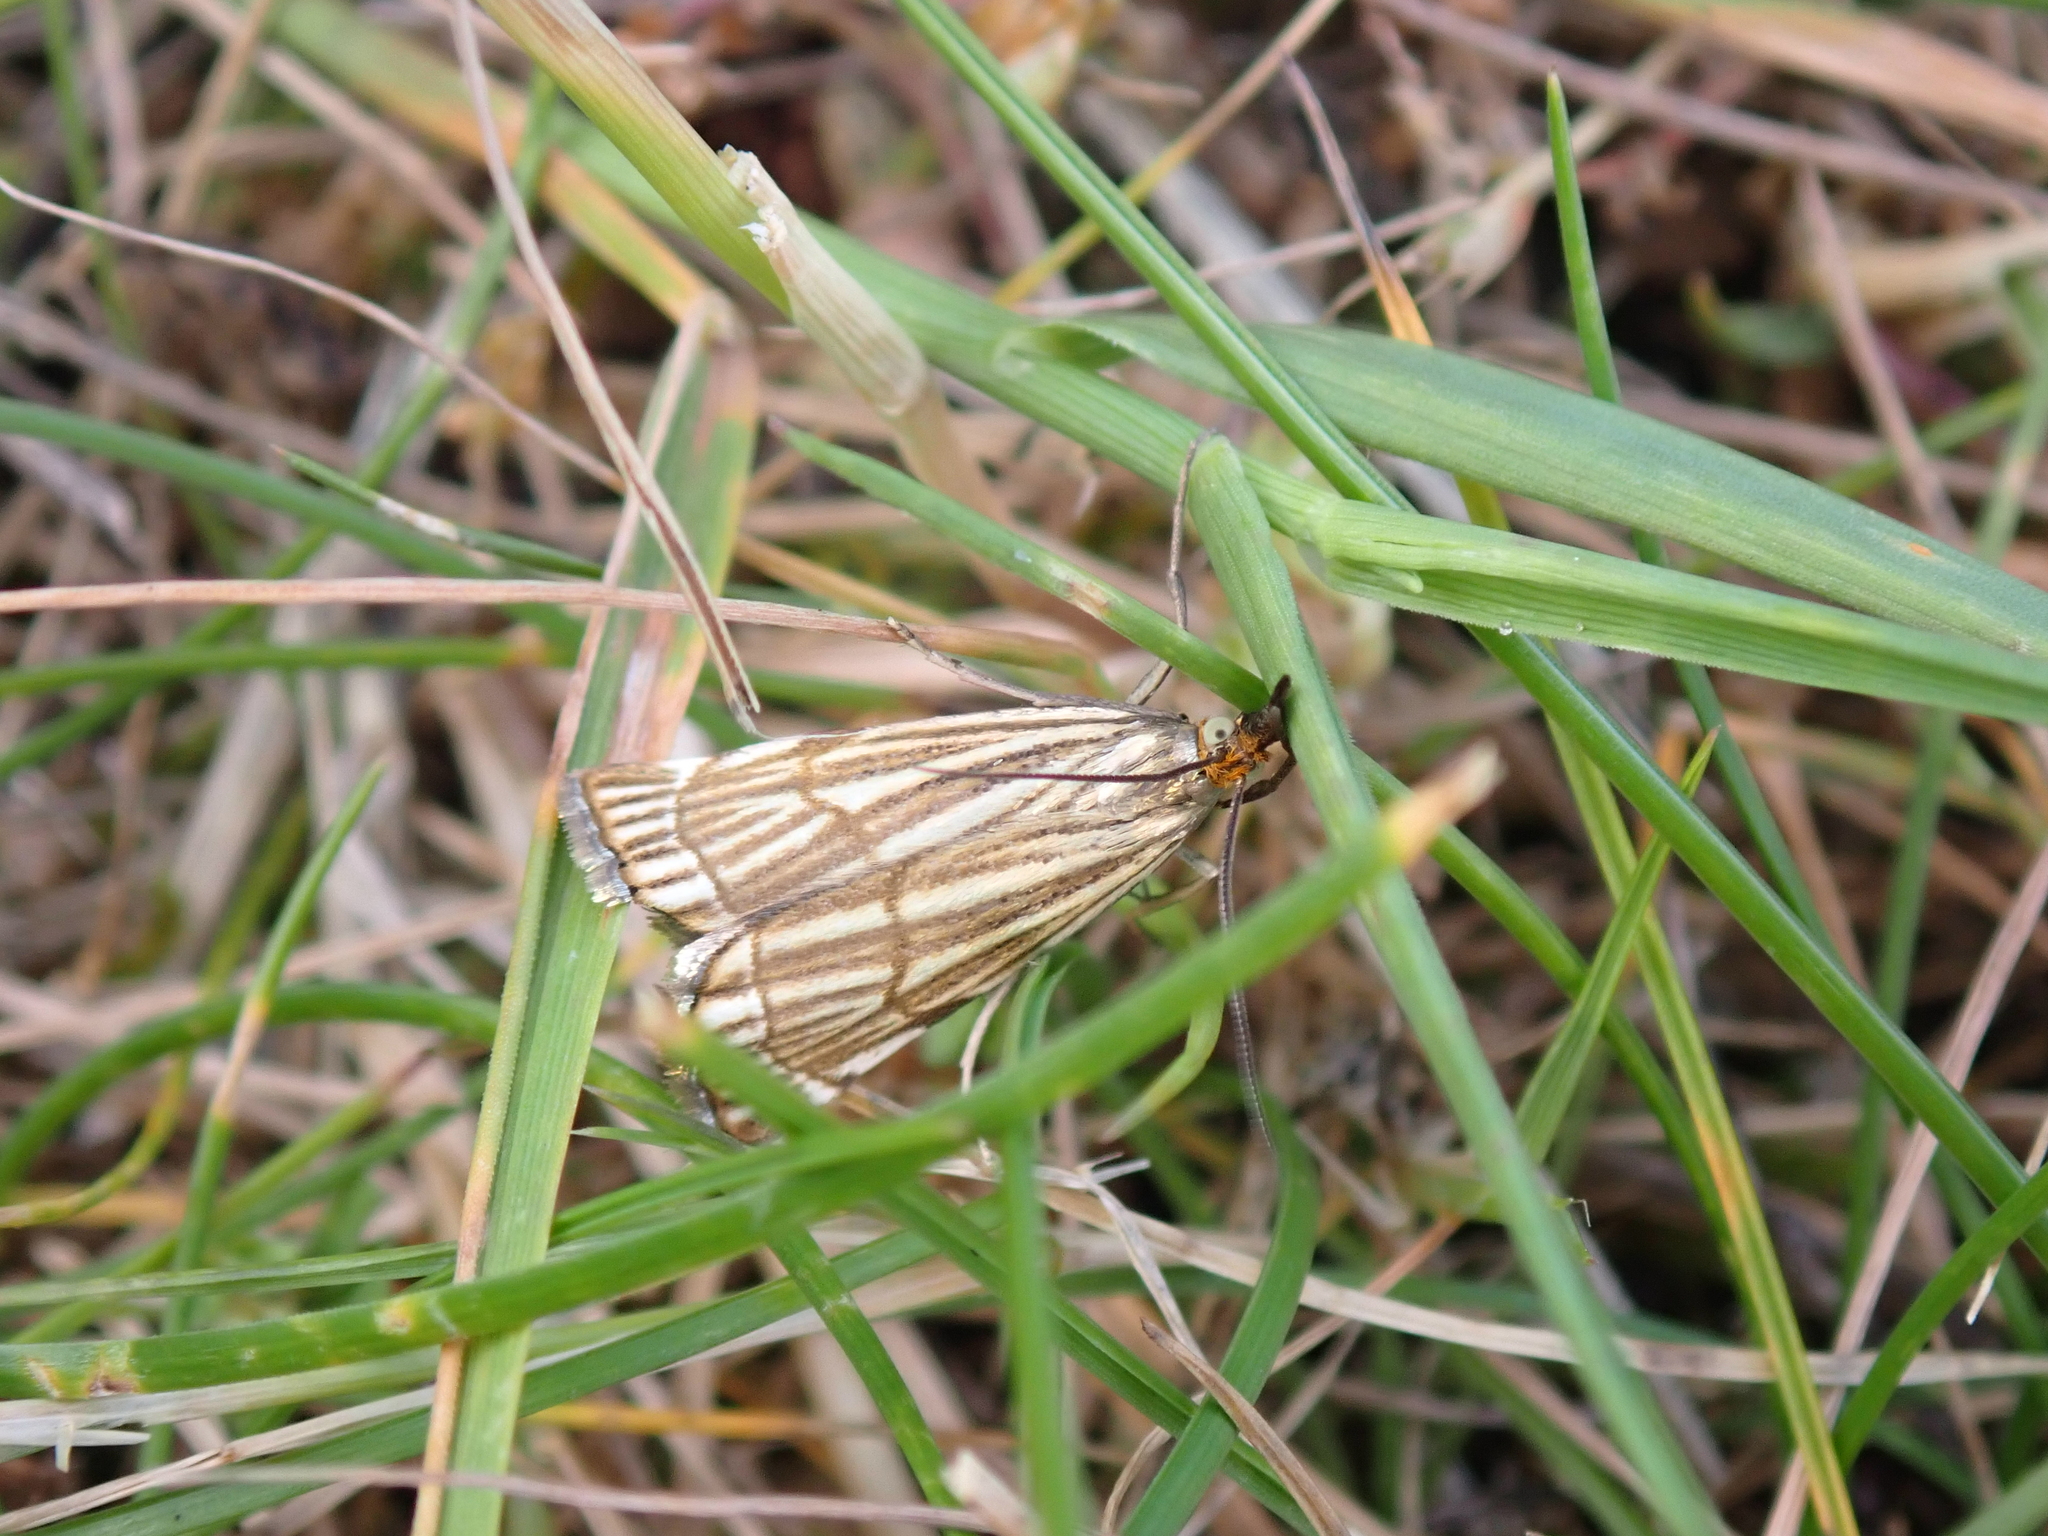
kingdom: Animalia
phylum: Arthropoda
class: Insecta
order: Lepidoptera
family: Crambidae
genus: Chrysocrambus
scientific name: Chrysocrambus Chrysocramboides craterellus
